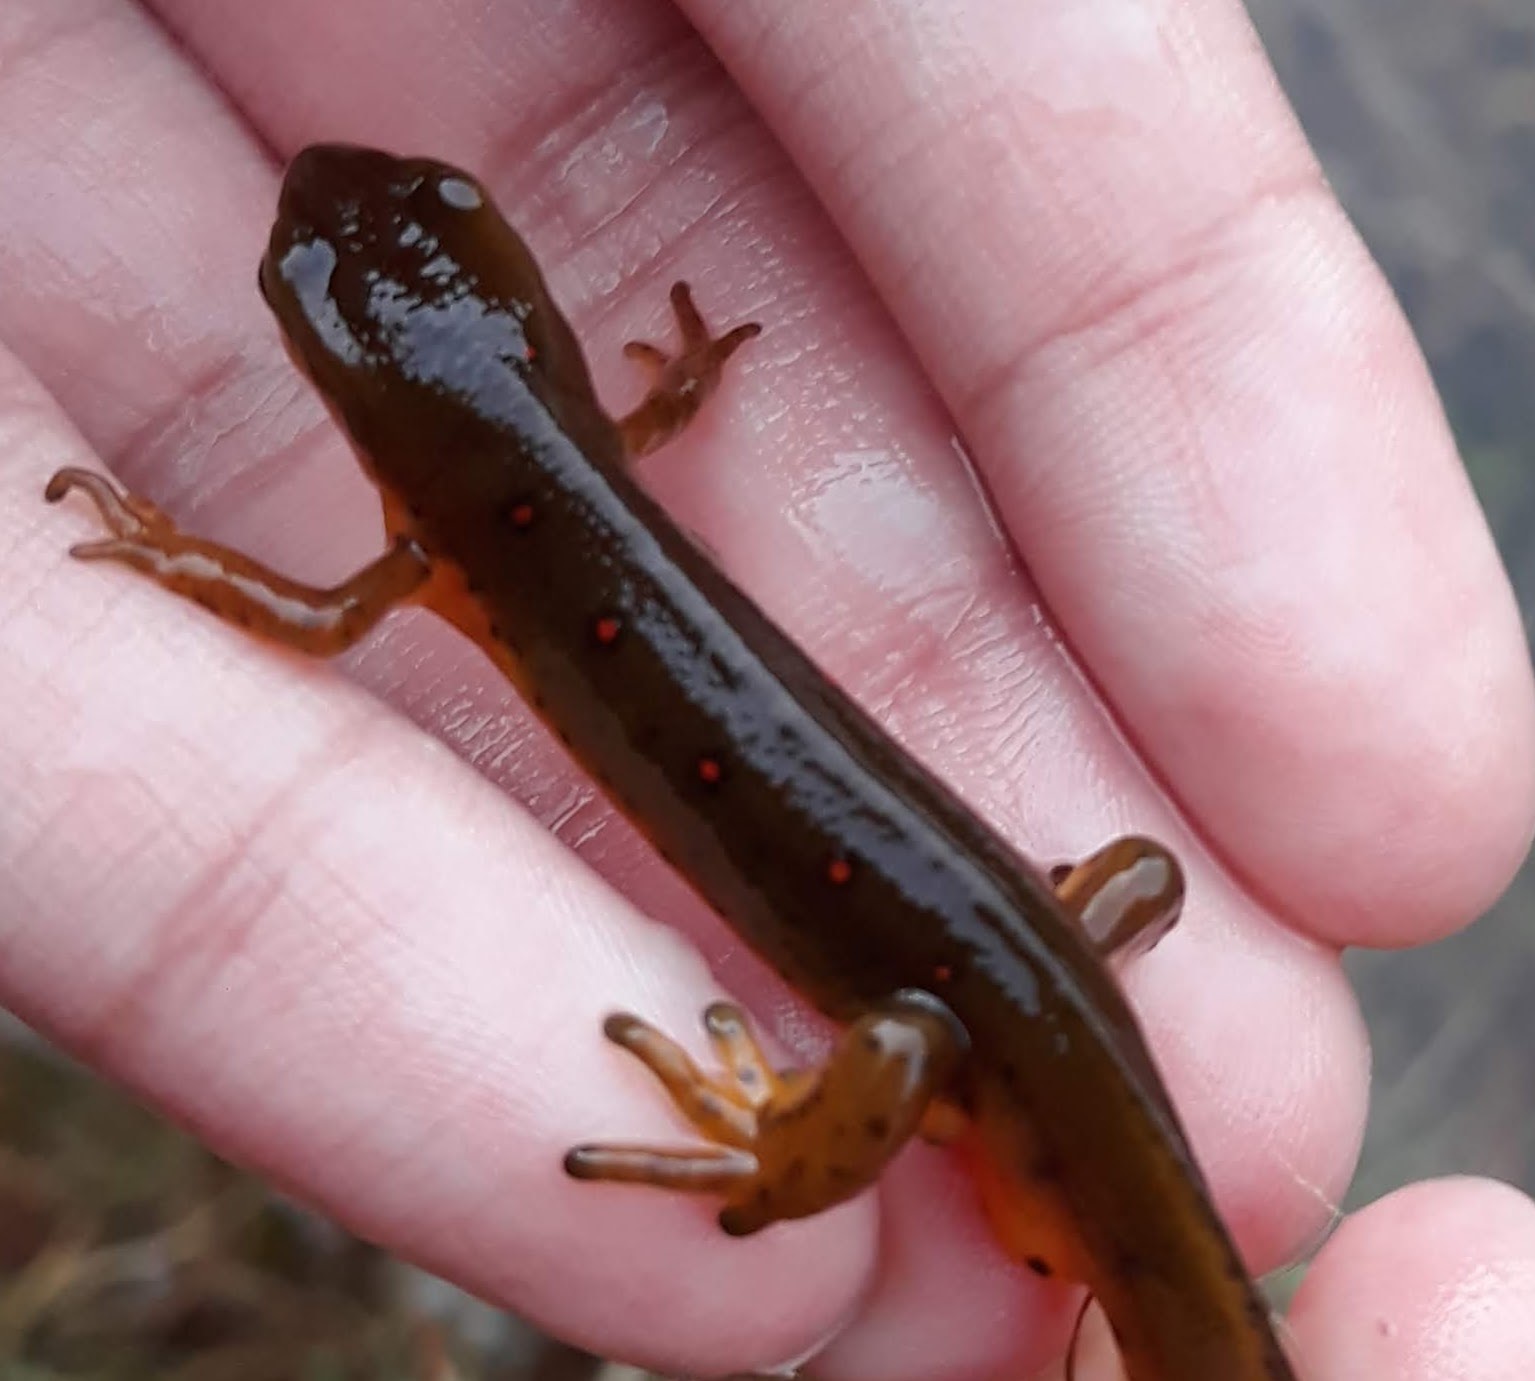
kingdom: Animalia
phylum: Chordata
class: Amphibia
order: Caudata
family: Salamandridae
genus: Notophthalmus
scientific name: Notophthalmus viridescens
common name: Eastern newt
